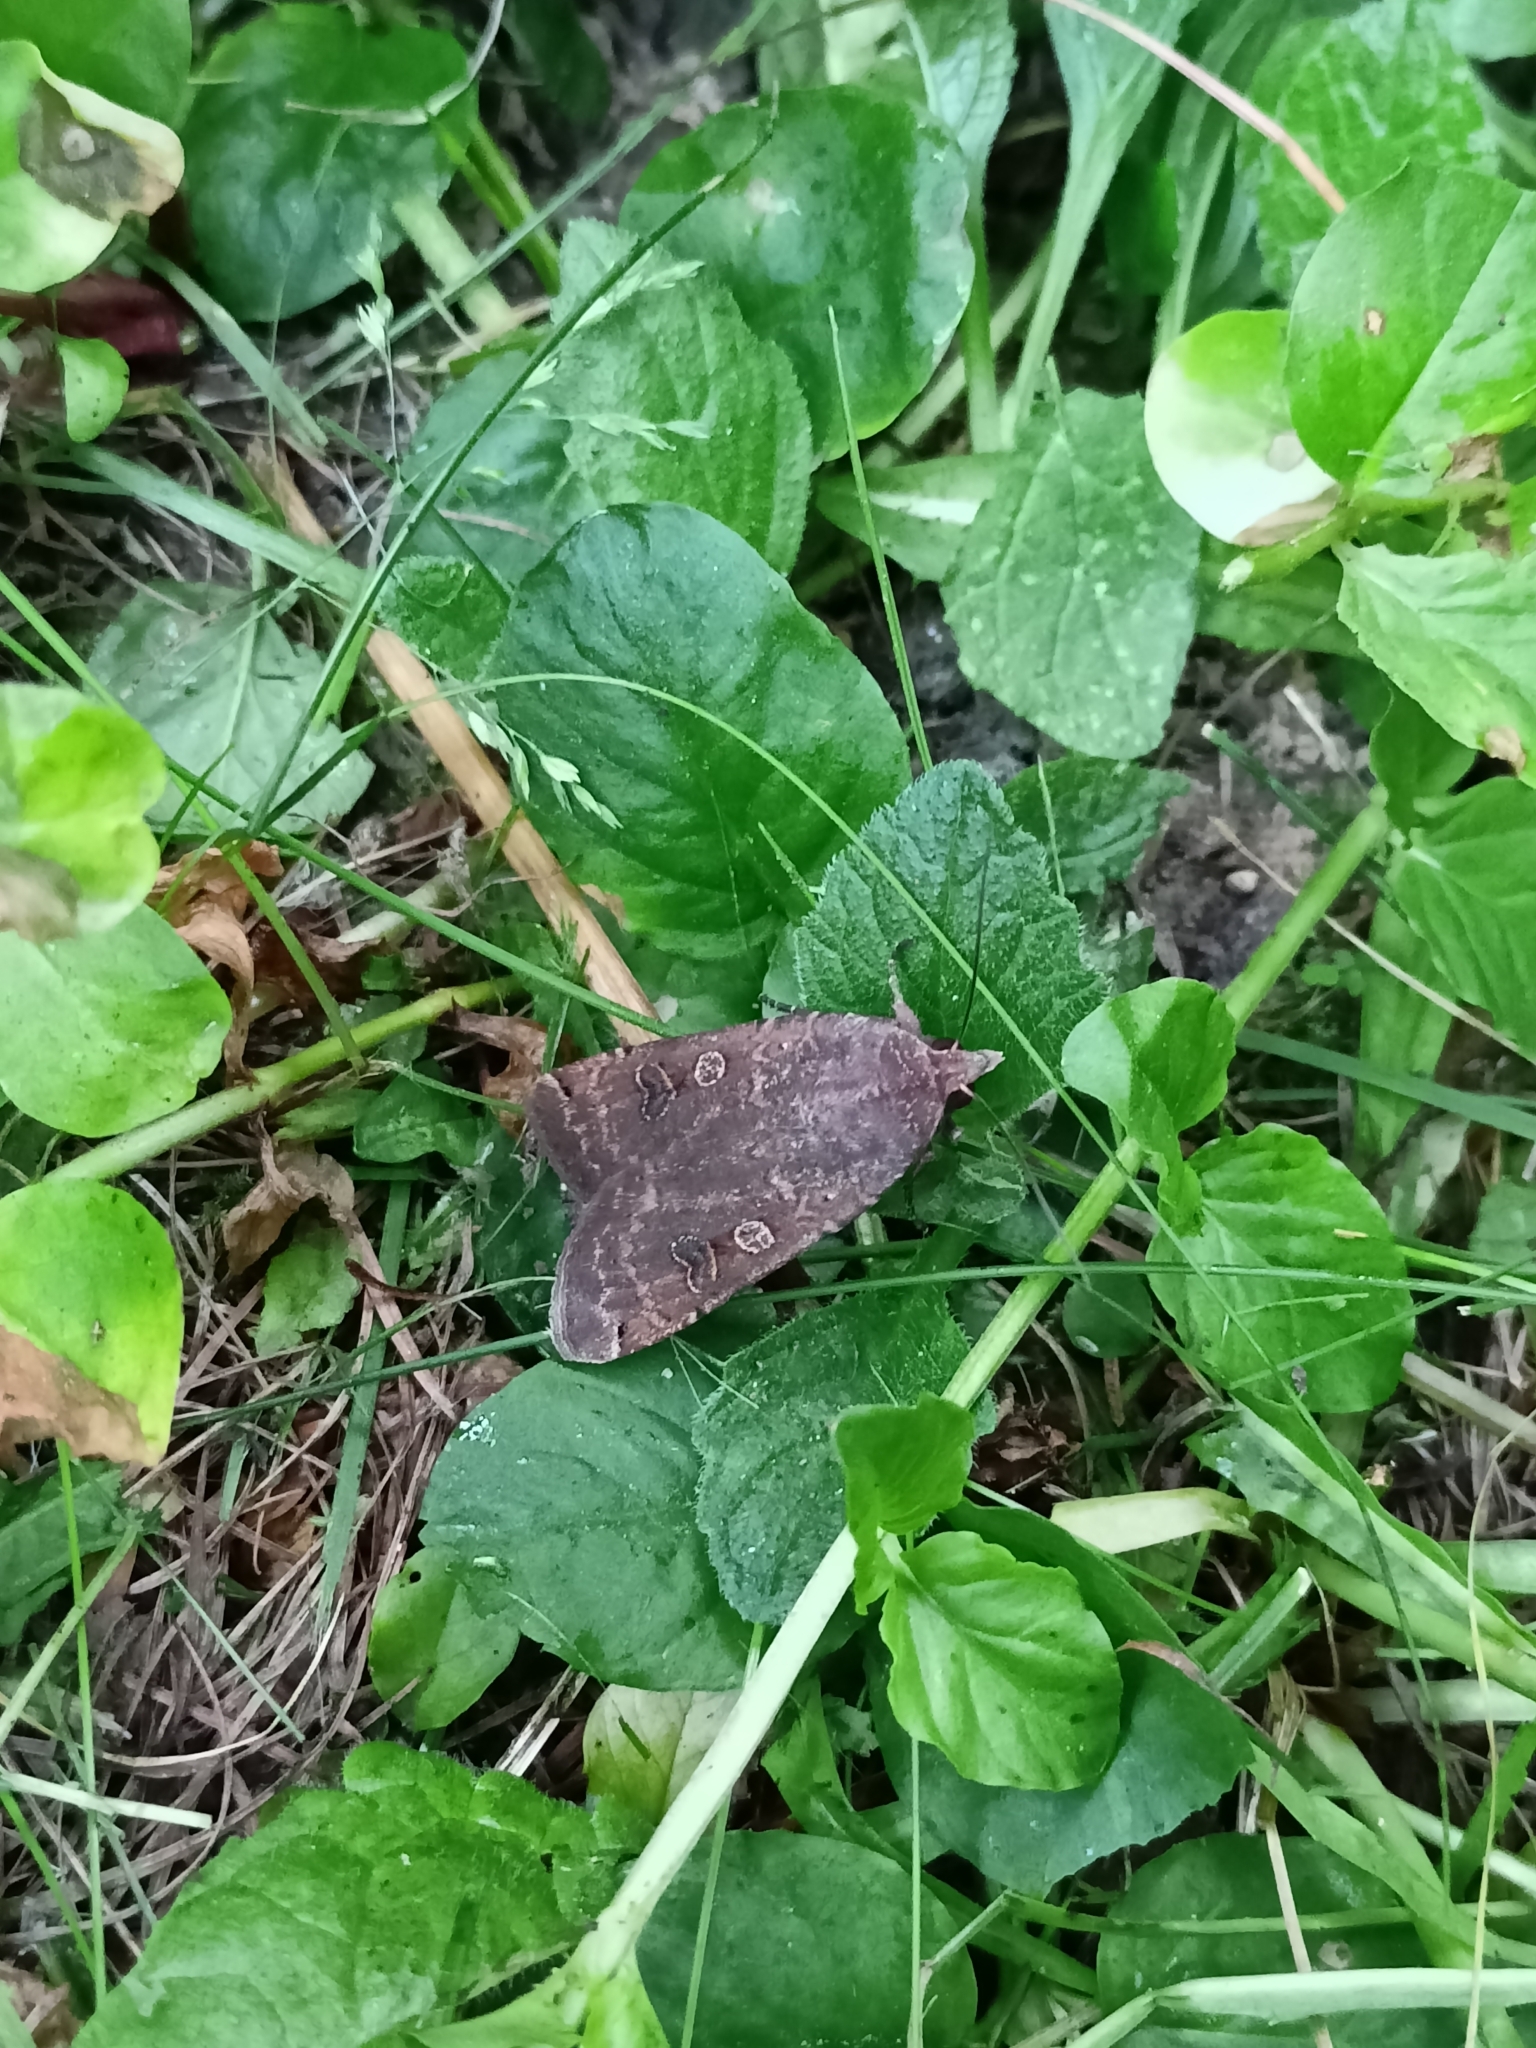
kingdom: Animalia
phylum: Arthropoda
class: Insecta
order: Lepidoptera
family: Noctuidae
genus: Noctua
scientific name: Noctua pronuba
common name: Large yellow underwing
